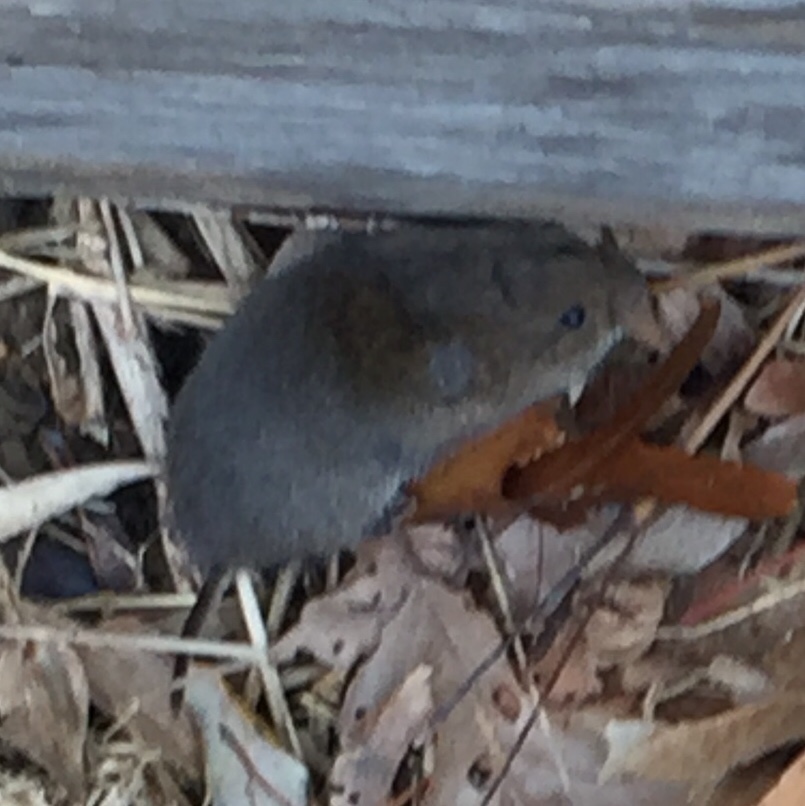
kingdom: Animalia
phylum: Chordata
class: Mammalia
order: Rodentia
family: Cricetidae
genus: Microtus
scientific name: Microtus pennsylvanicus
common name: Meadow vole
